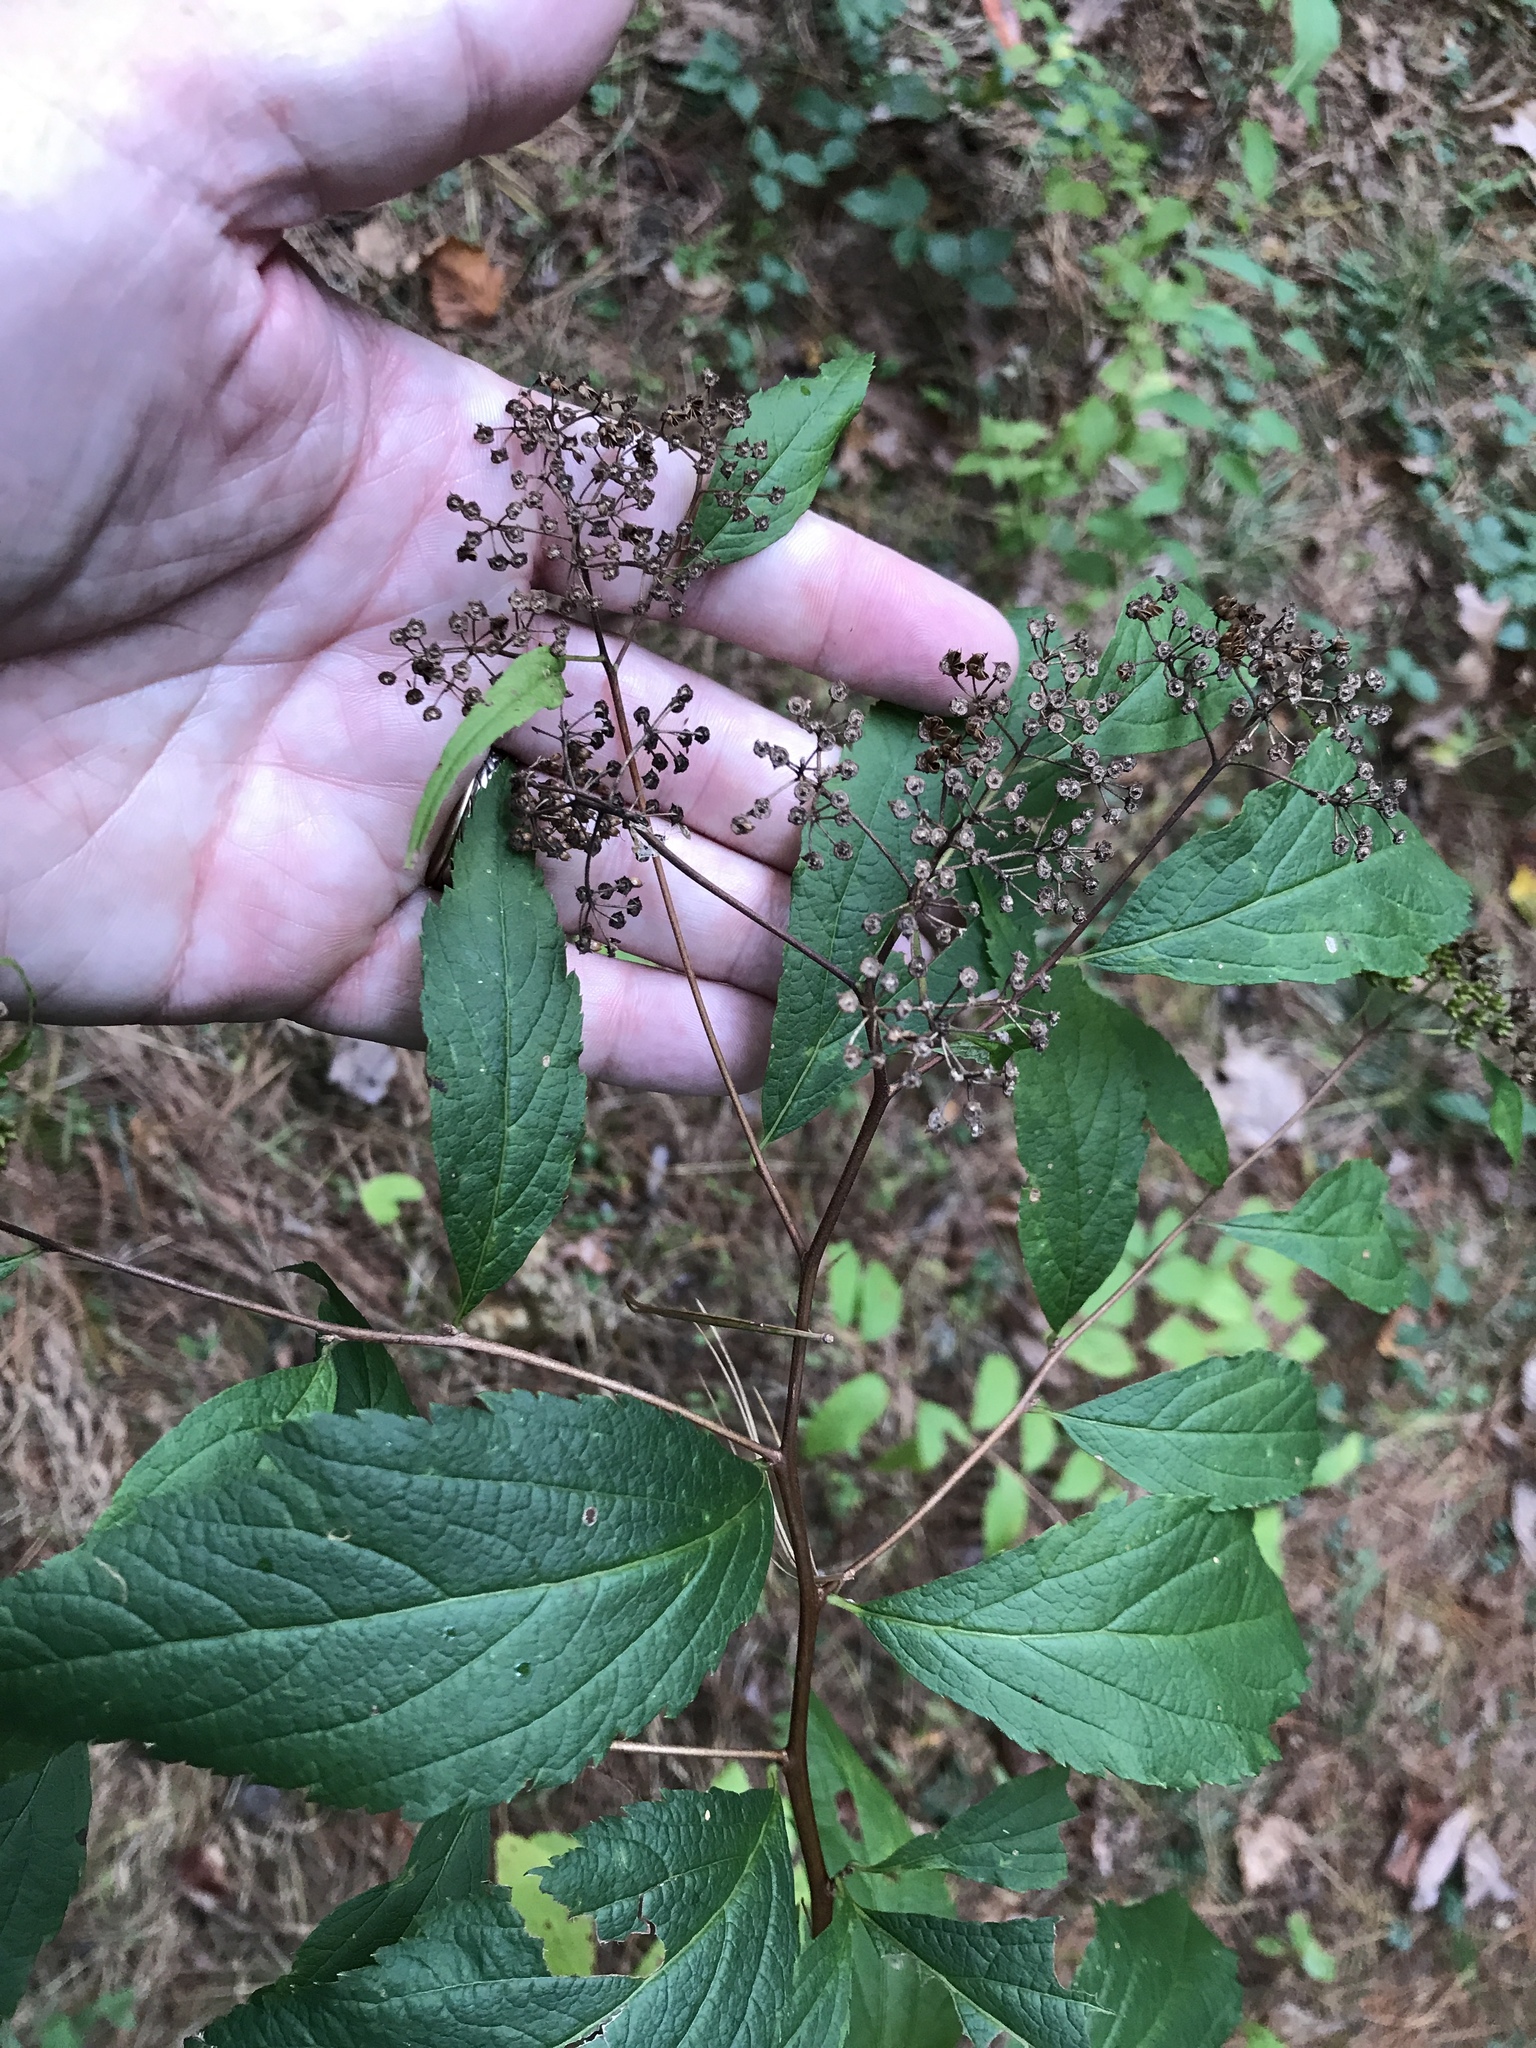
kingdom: Plantae
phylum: Tracheophyta
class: Magnoliopsida
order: Rosales
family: Rosaceae
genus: Spiraea
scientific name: Spiraea japonica
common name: Japanese spiraea
